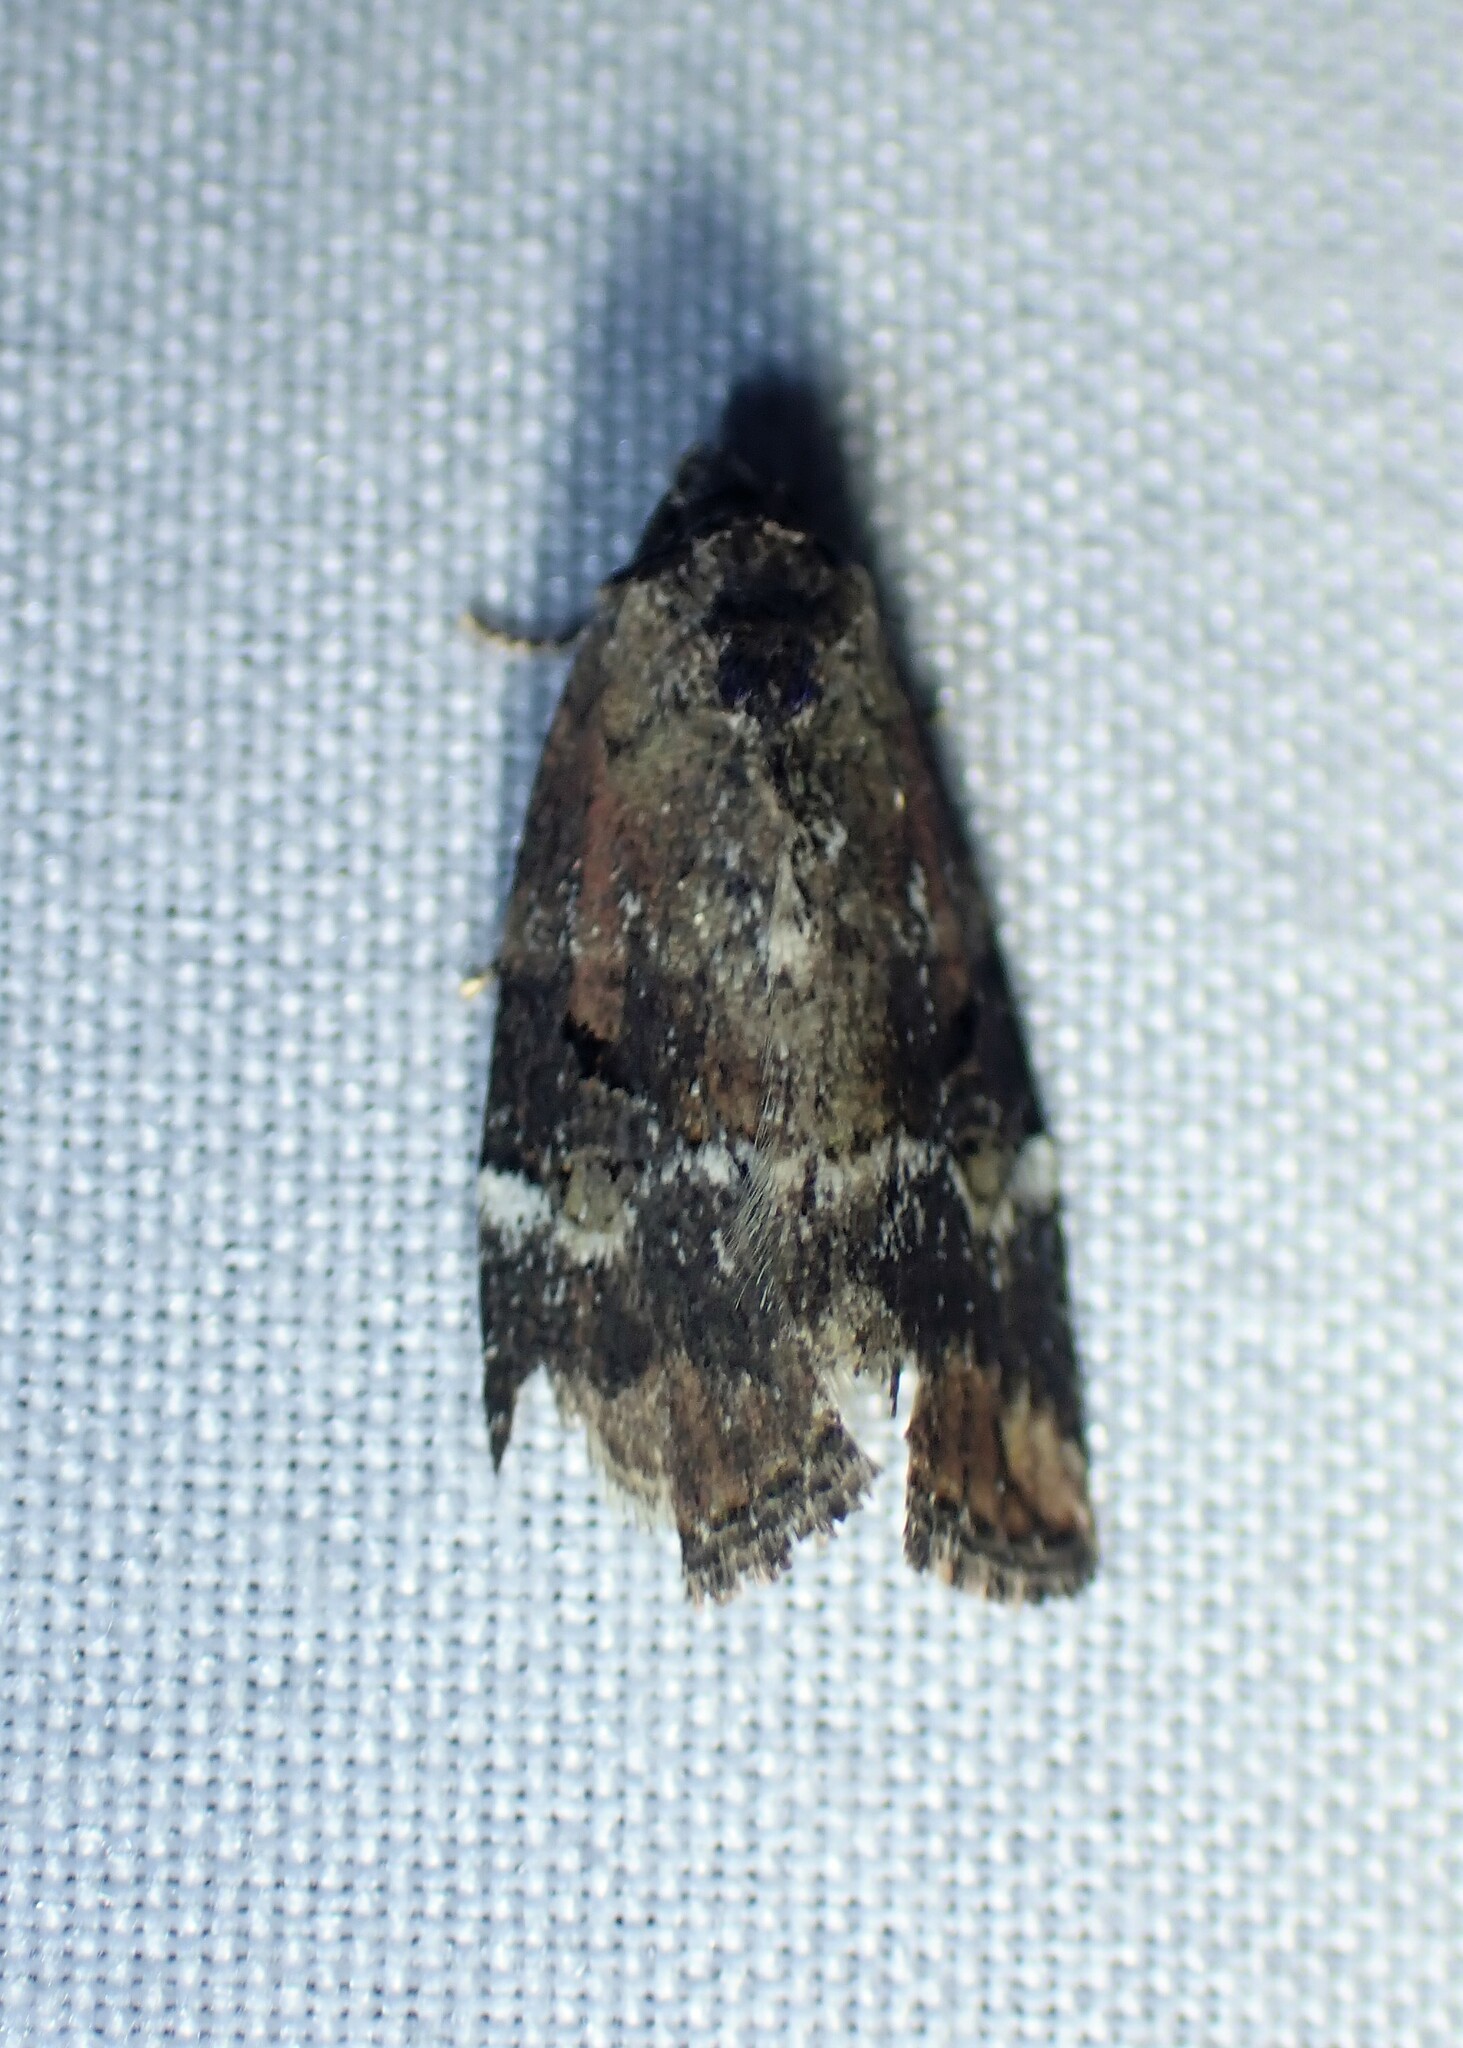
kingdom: Animalia
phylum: Arthropoda
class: Insecta
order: Lepidoptera
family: Noctuidae
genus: Elaphria
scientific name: Elaphria versicolor
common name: Fir harlequin
